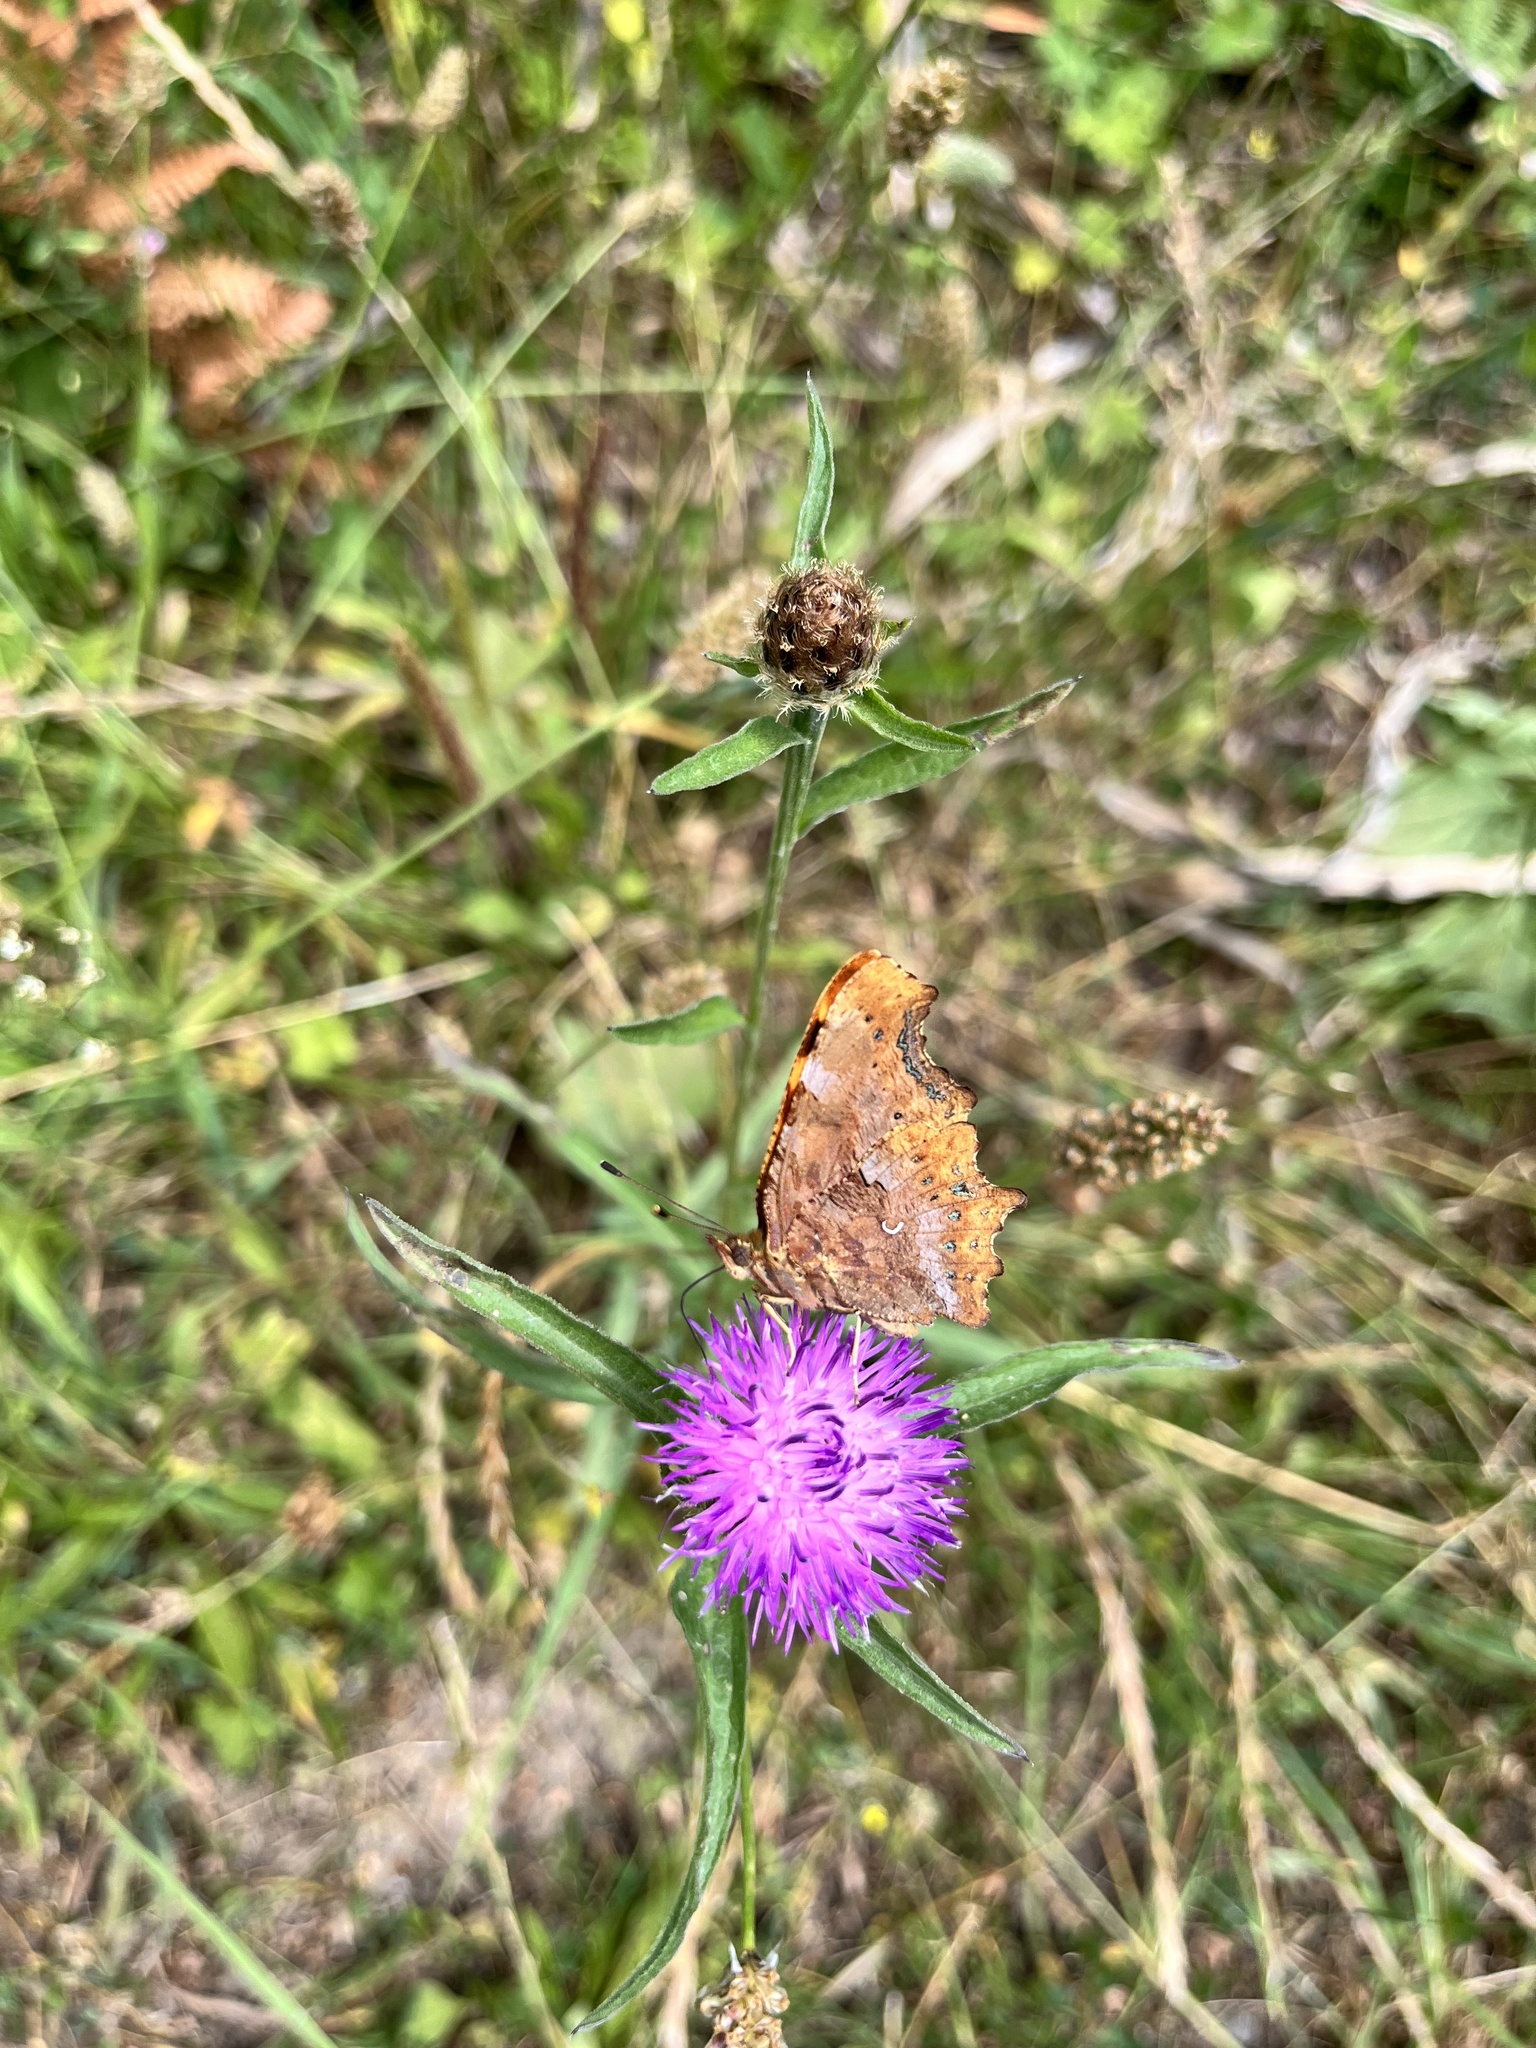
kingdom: Animalia
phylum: Arthropoda
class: Insecta
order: Lepidoptera
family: Nymphalidae
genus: Polygonia
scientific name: Polygonia c-album
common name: Comma
